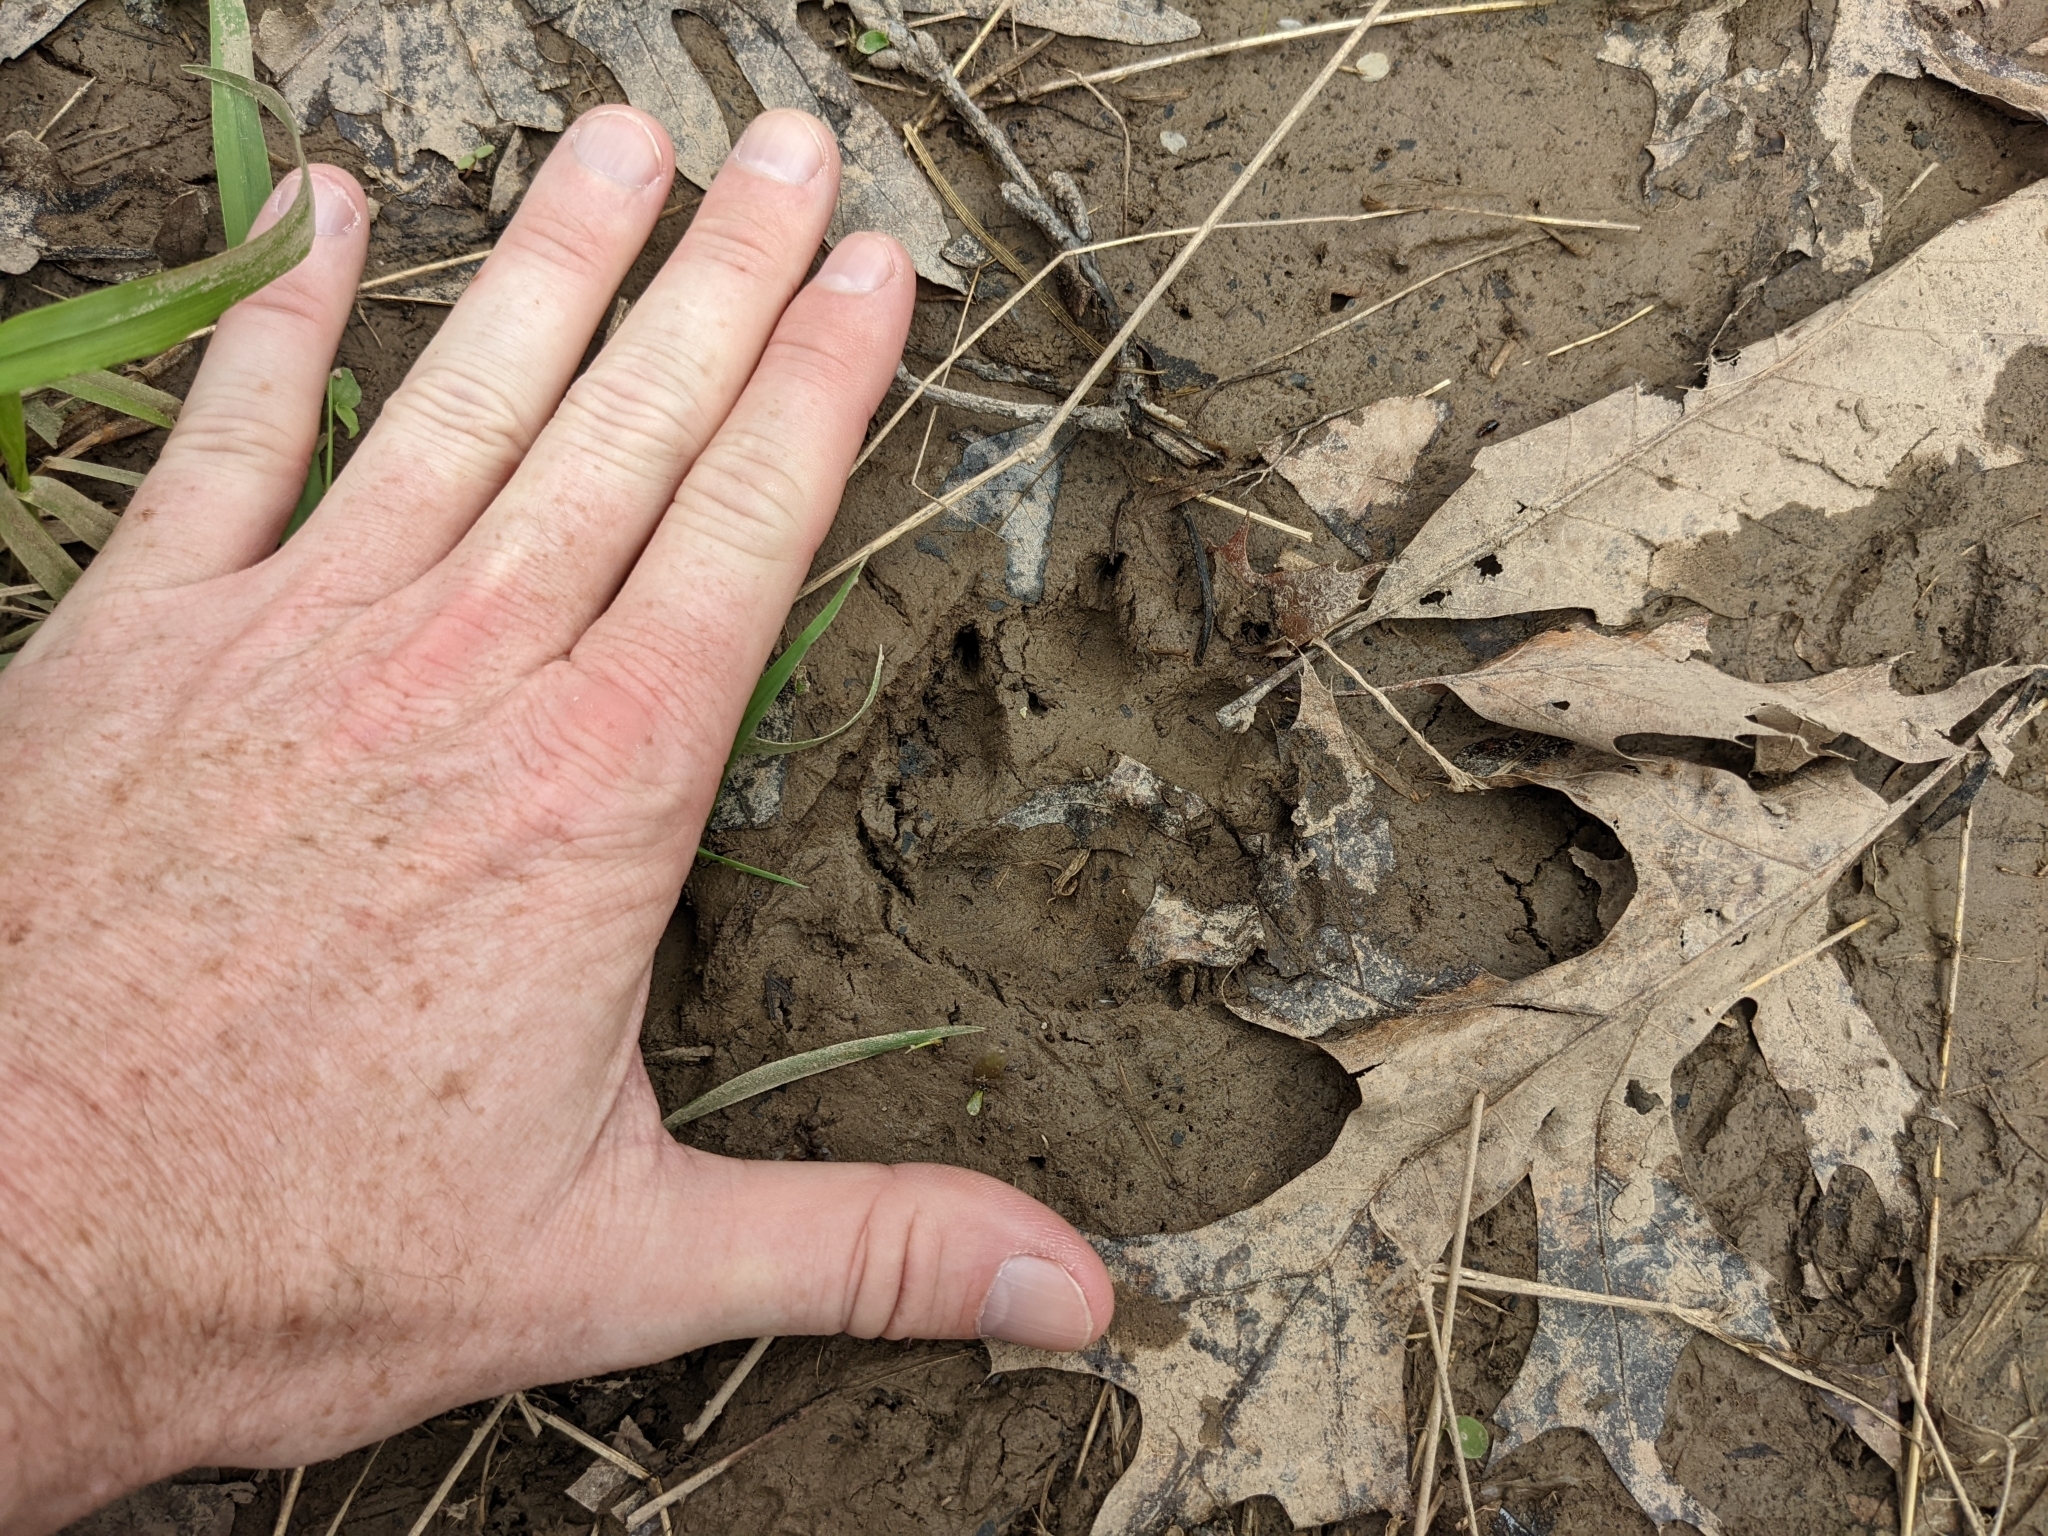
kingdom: Animalia
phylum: Chordata
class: Mammalia
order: Carnivora
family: Canidae
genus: Canis
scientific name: Canis latrans
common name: Coyote
